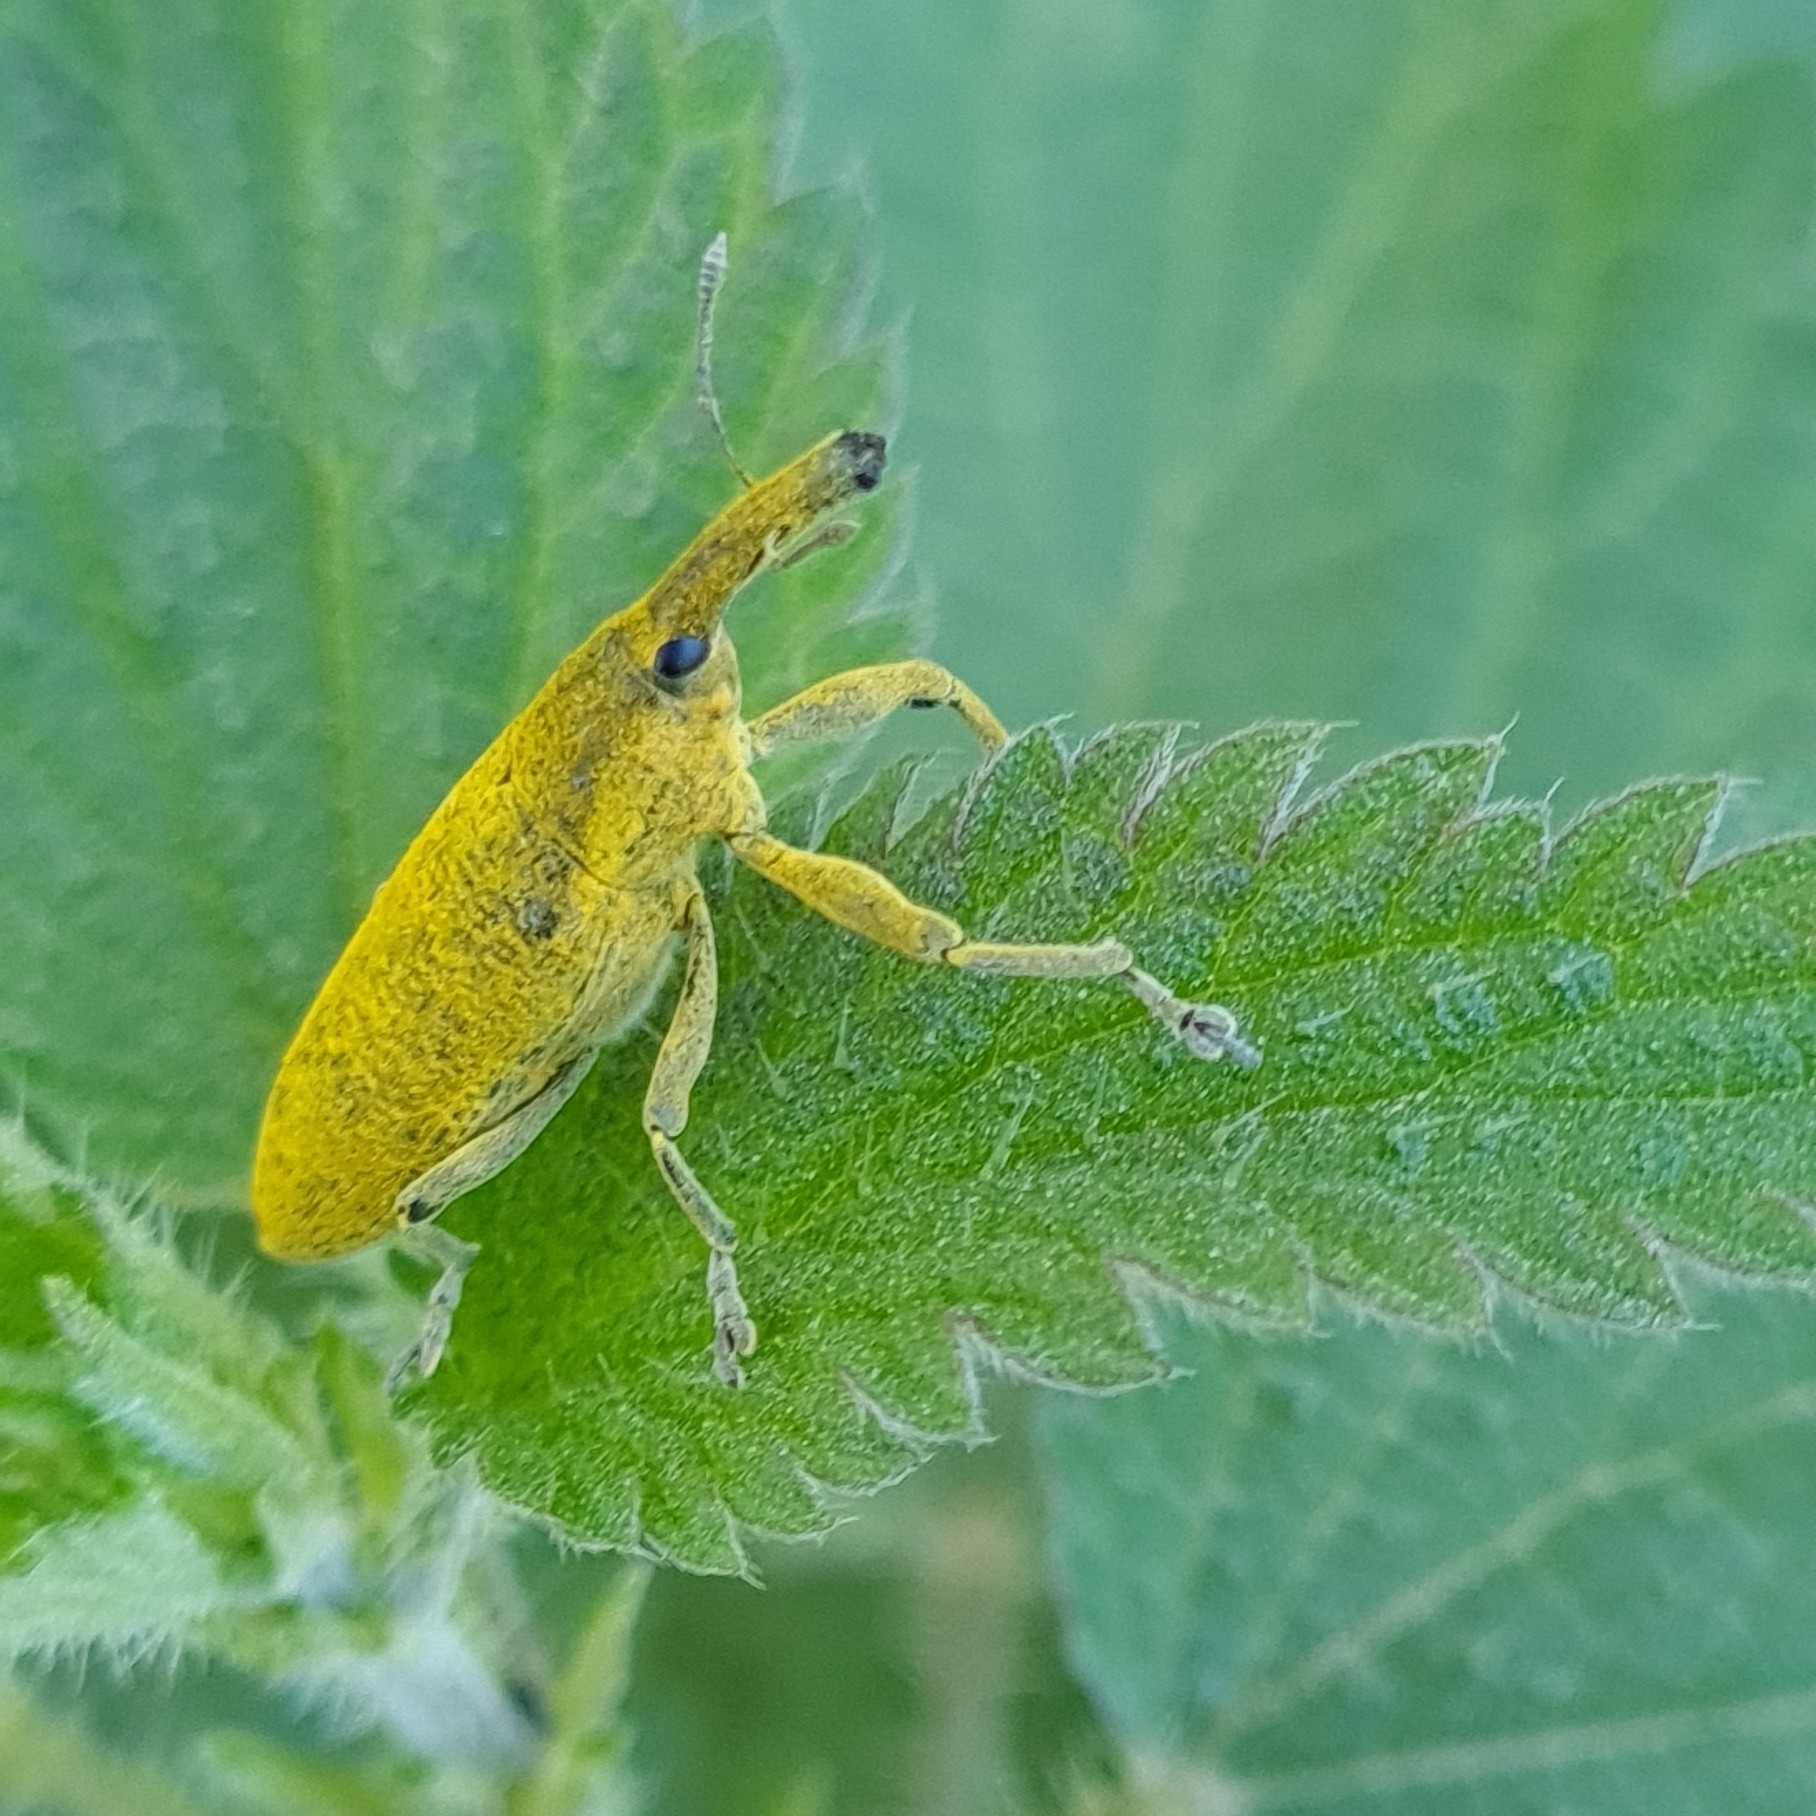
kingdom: Animalia
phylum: Arthropoda
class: Insecta
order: Coleoptera
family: Curculionidae
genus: Lixus
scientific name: Lixus pulverulentus
